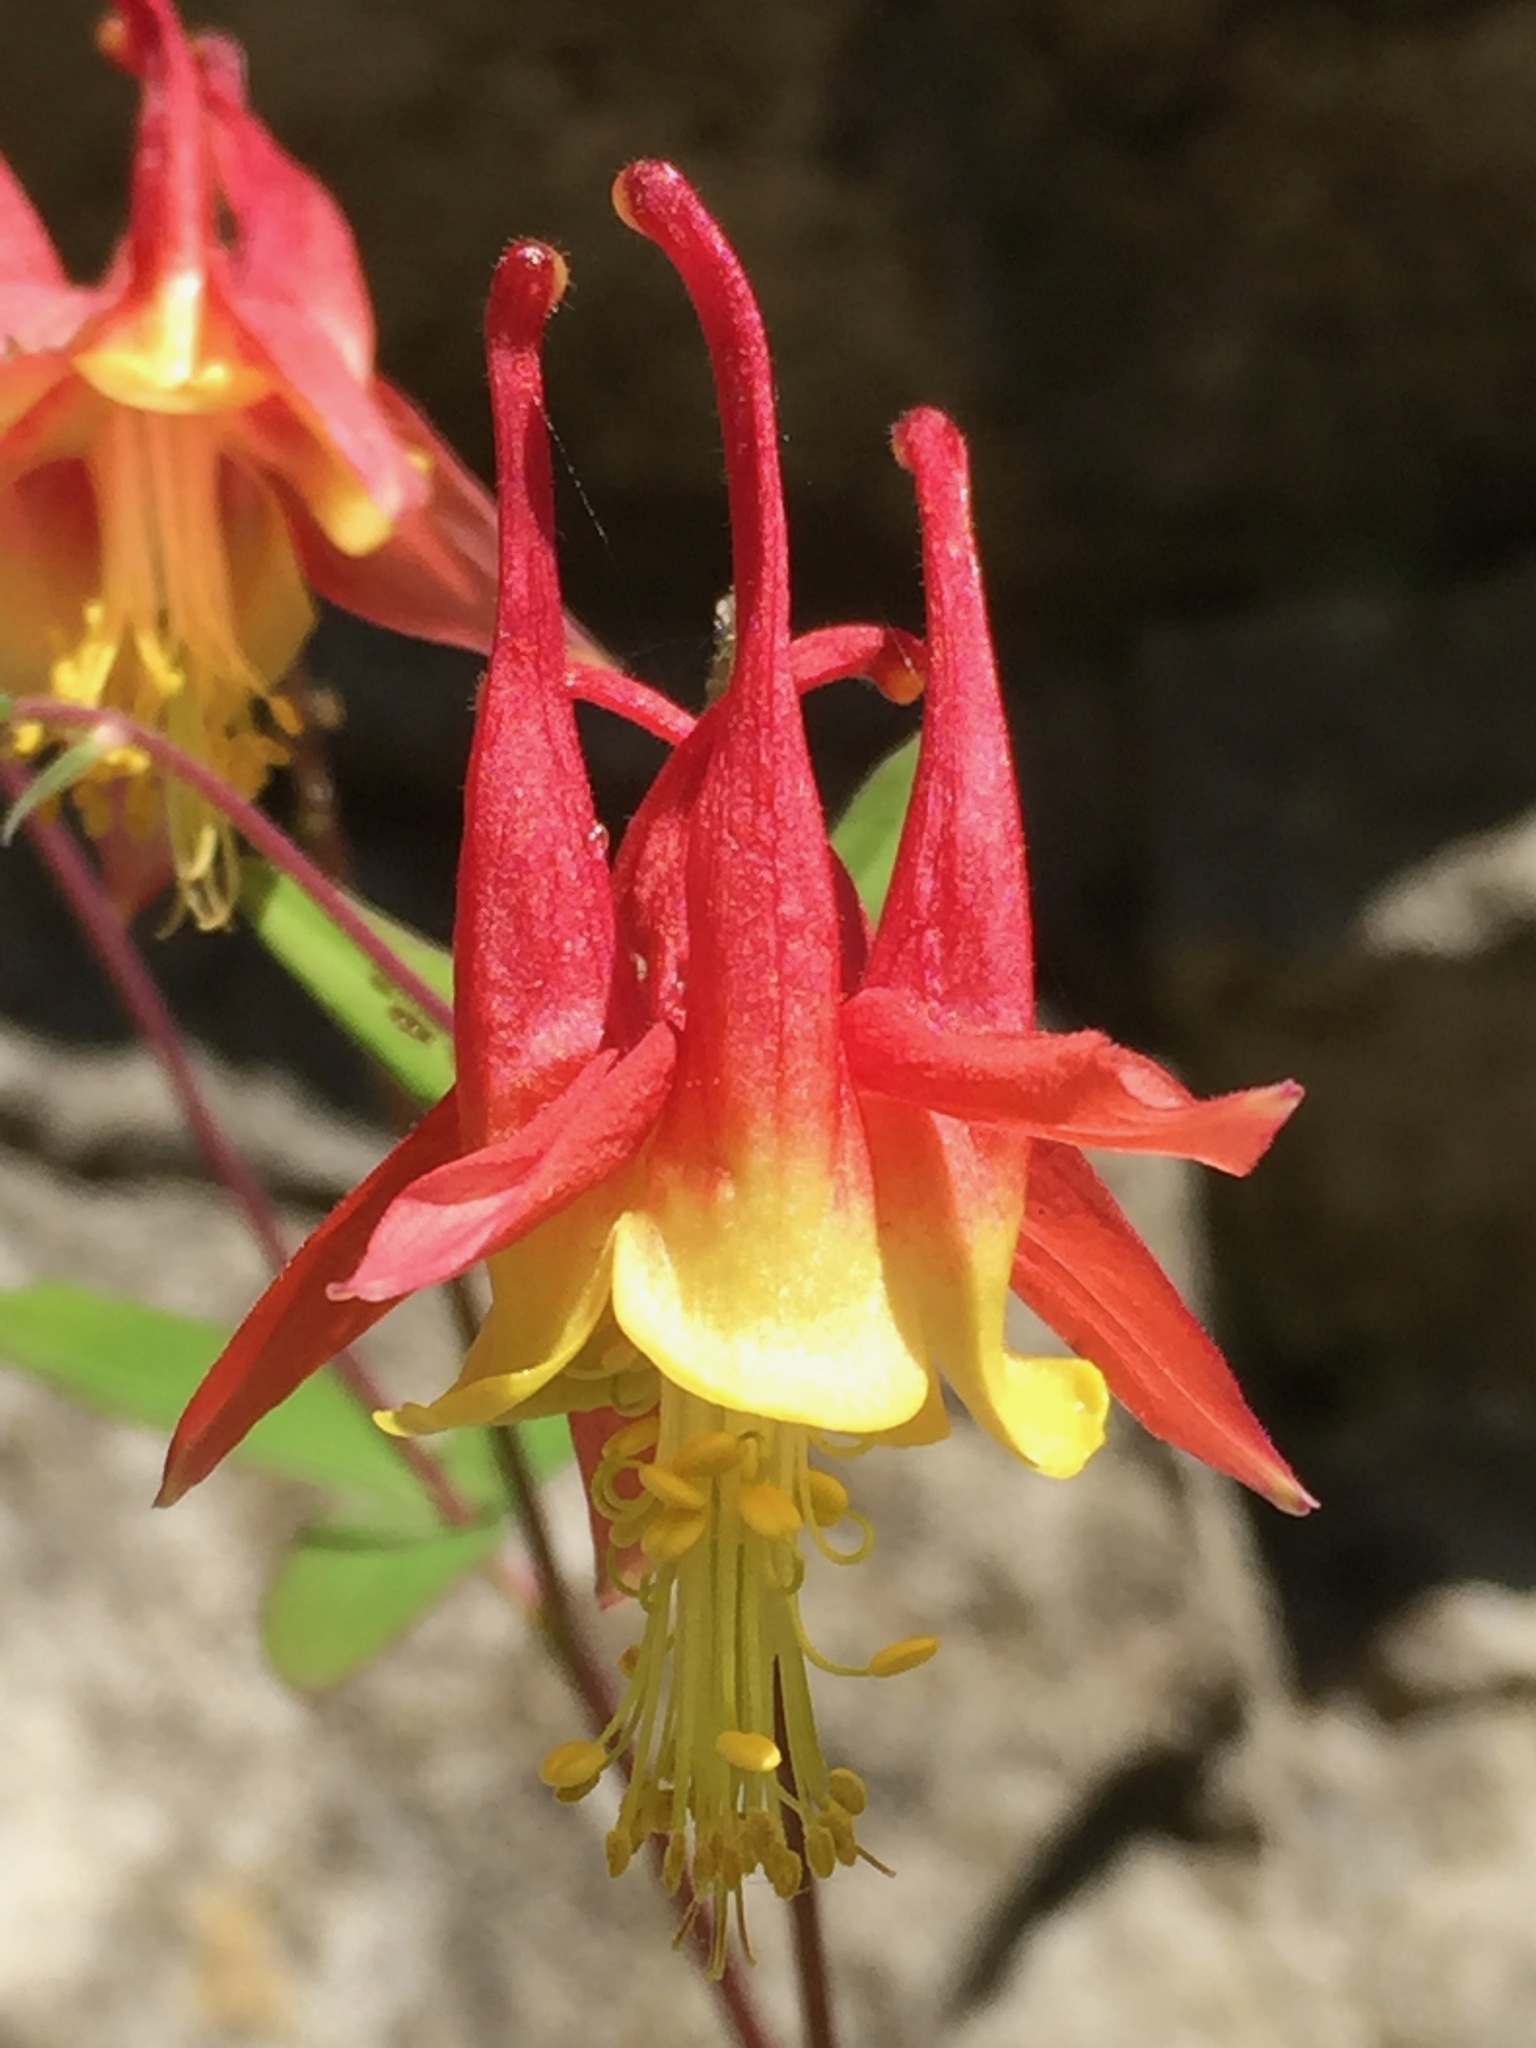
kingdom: Plantae
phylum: Tracheophyta
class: Magnoliopsida
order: Ranunculales
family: Ranunculaceae
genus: Aquilegia
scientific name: Aquilegia canadensis
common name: American columbine
